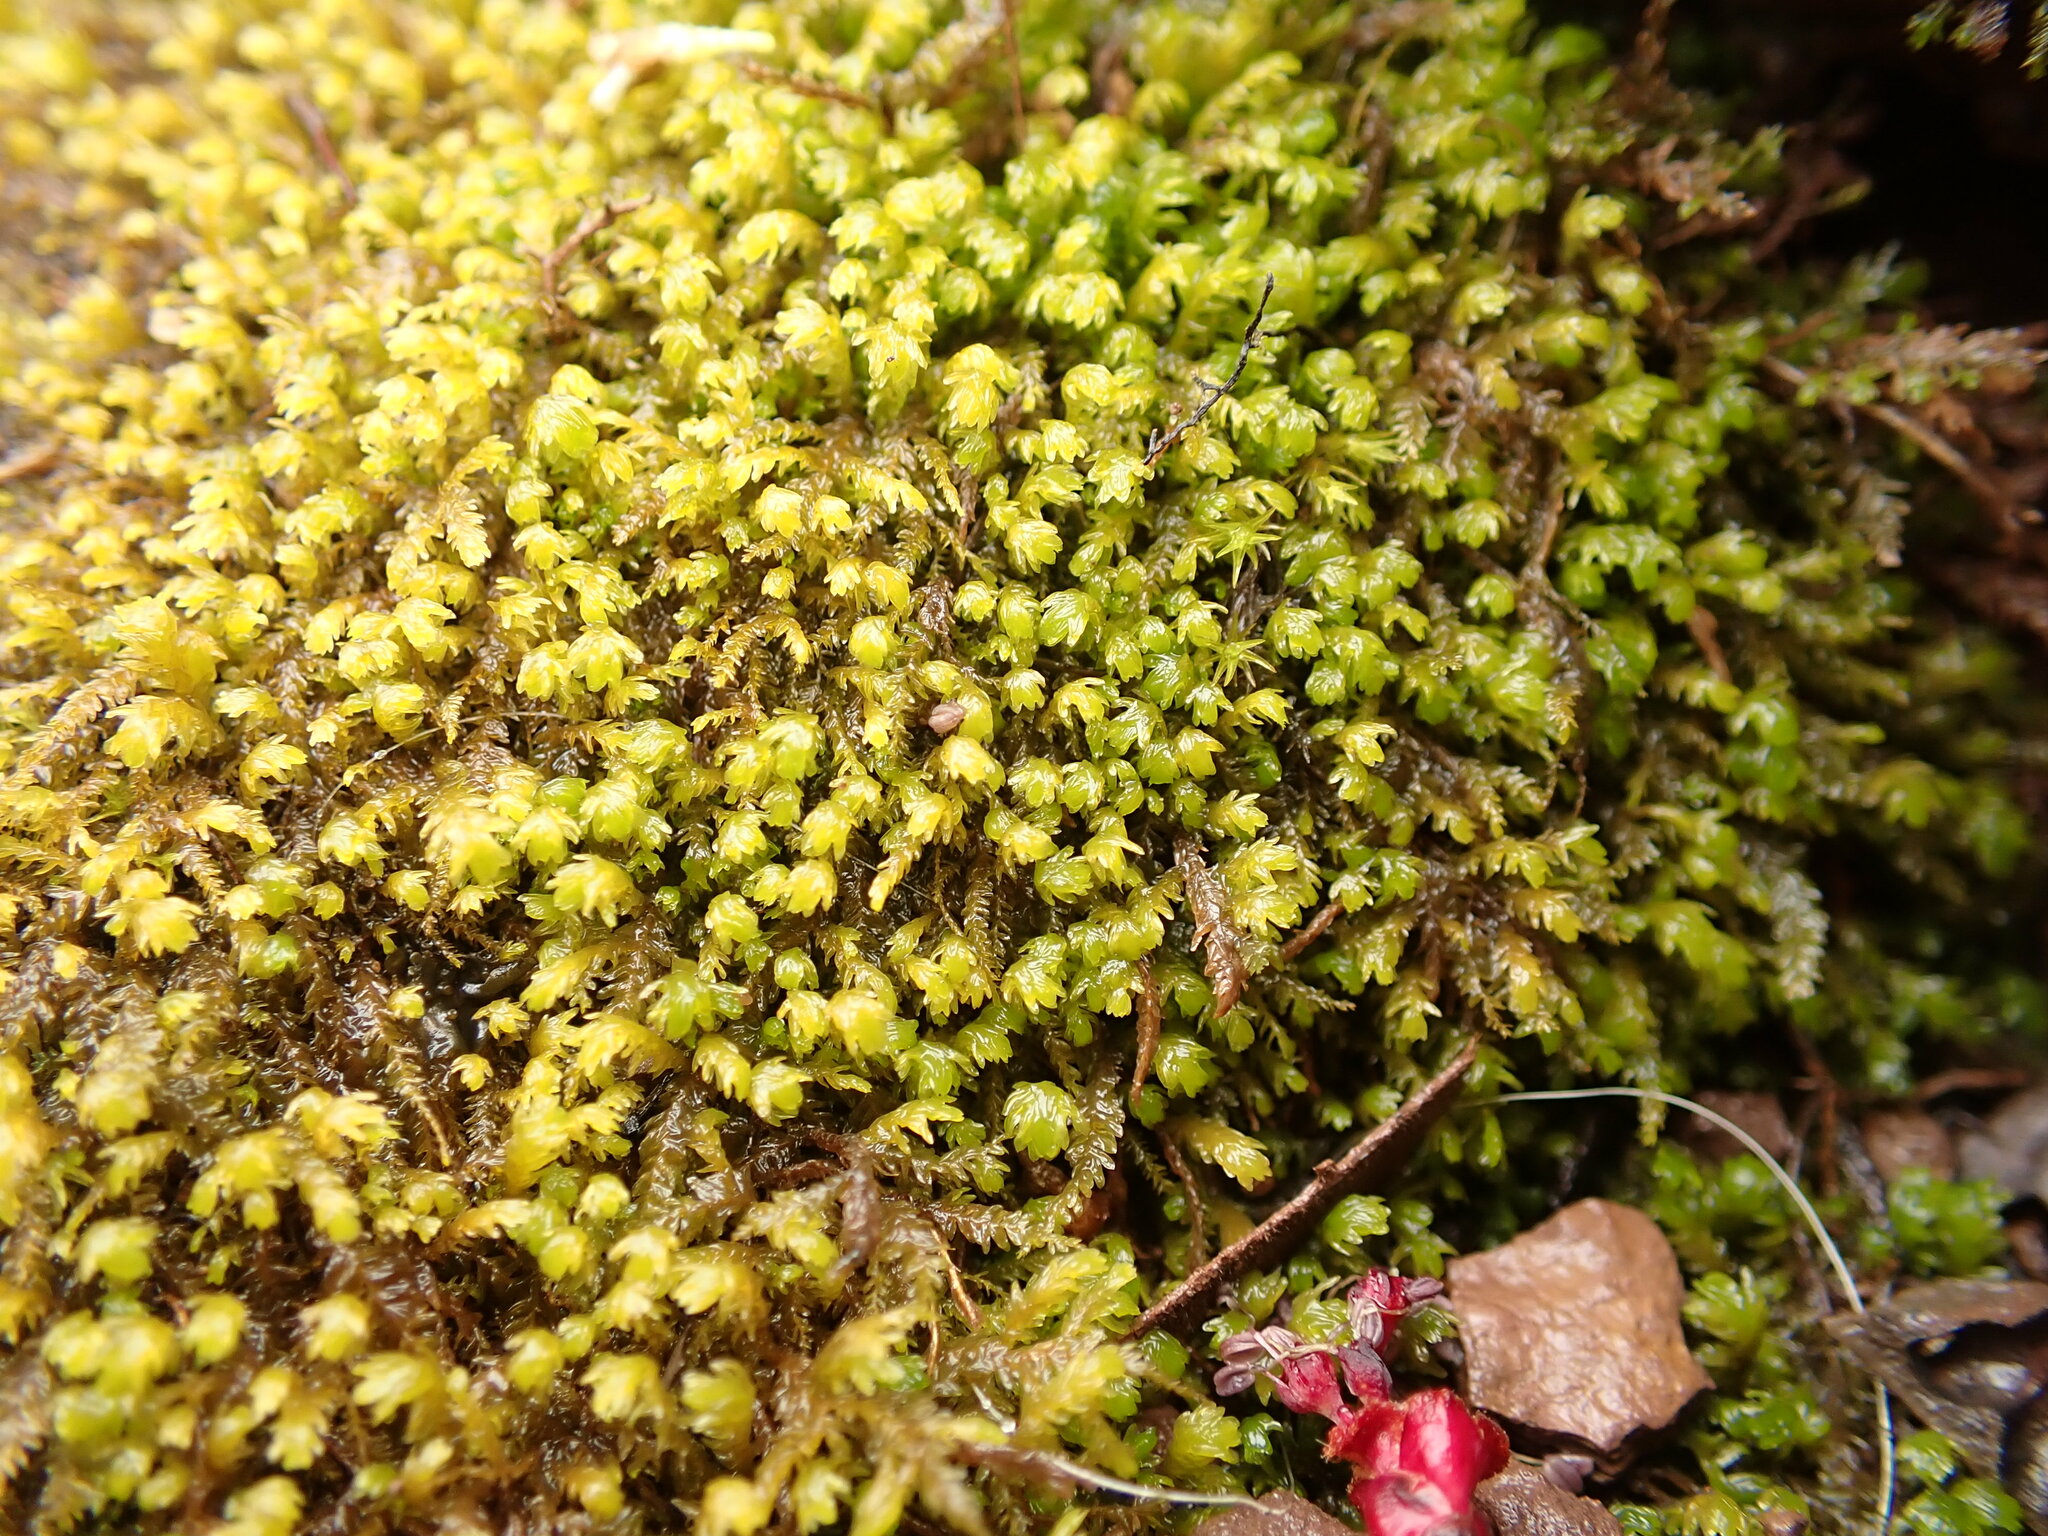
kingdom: Plantae
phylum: Bryophyta
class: Bryopsida
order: Hypnales
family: Neckeraceae
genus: Pseudanomodon
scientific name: Pseudanomodon attenuatus
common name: Tree-skirt moss
